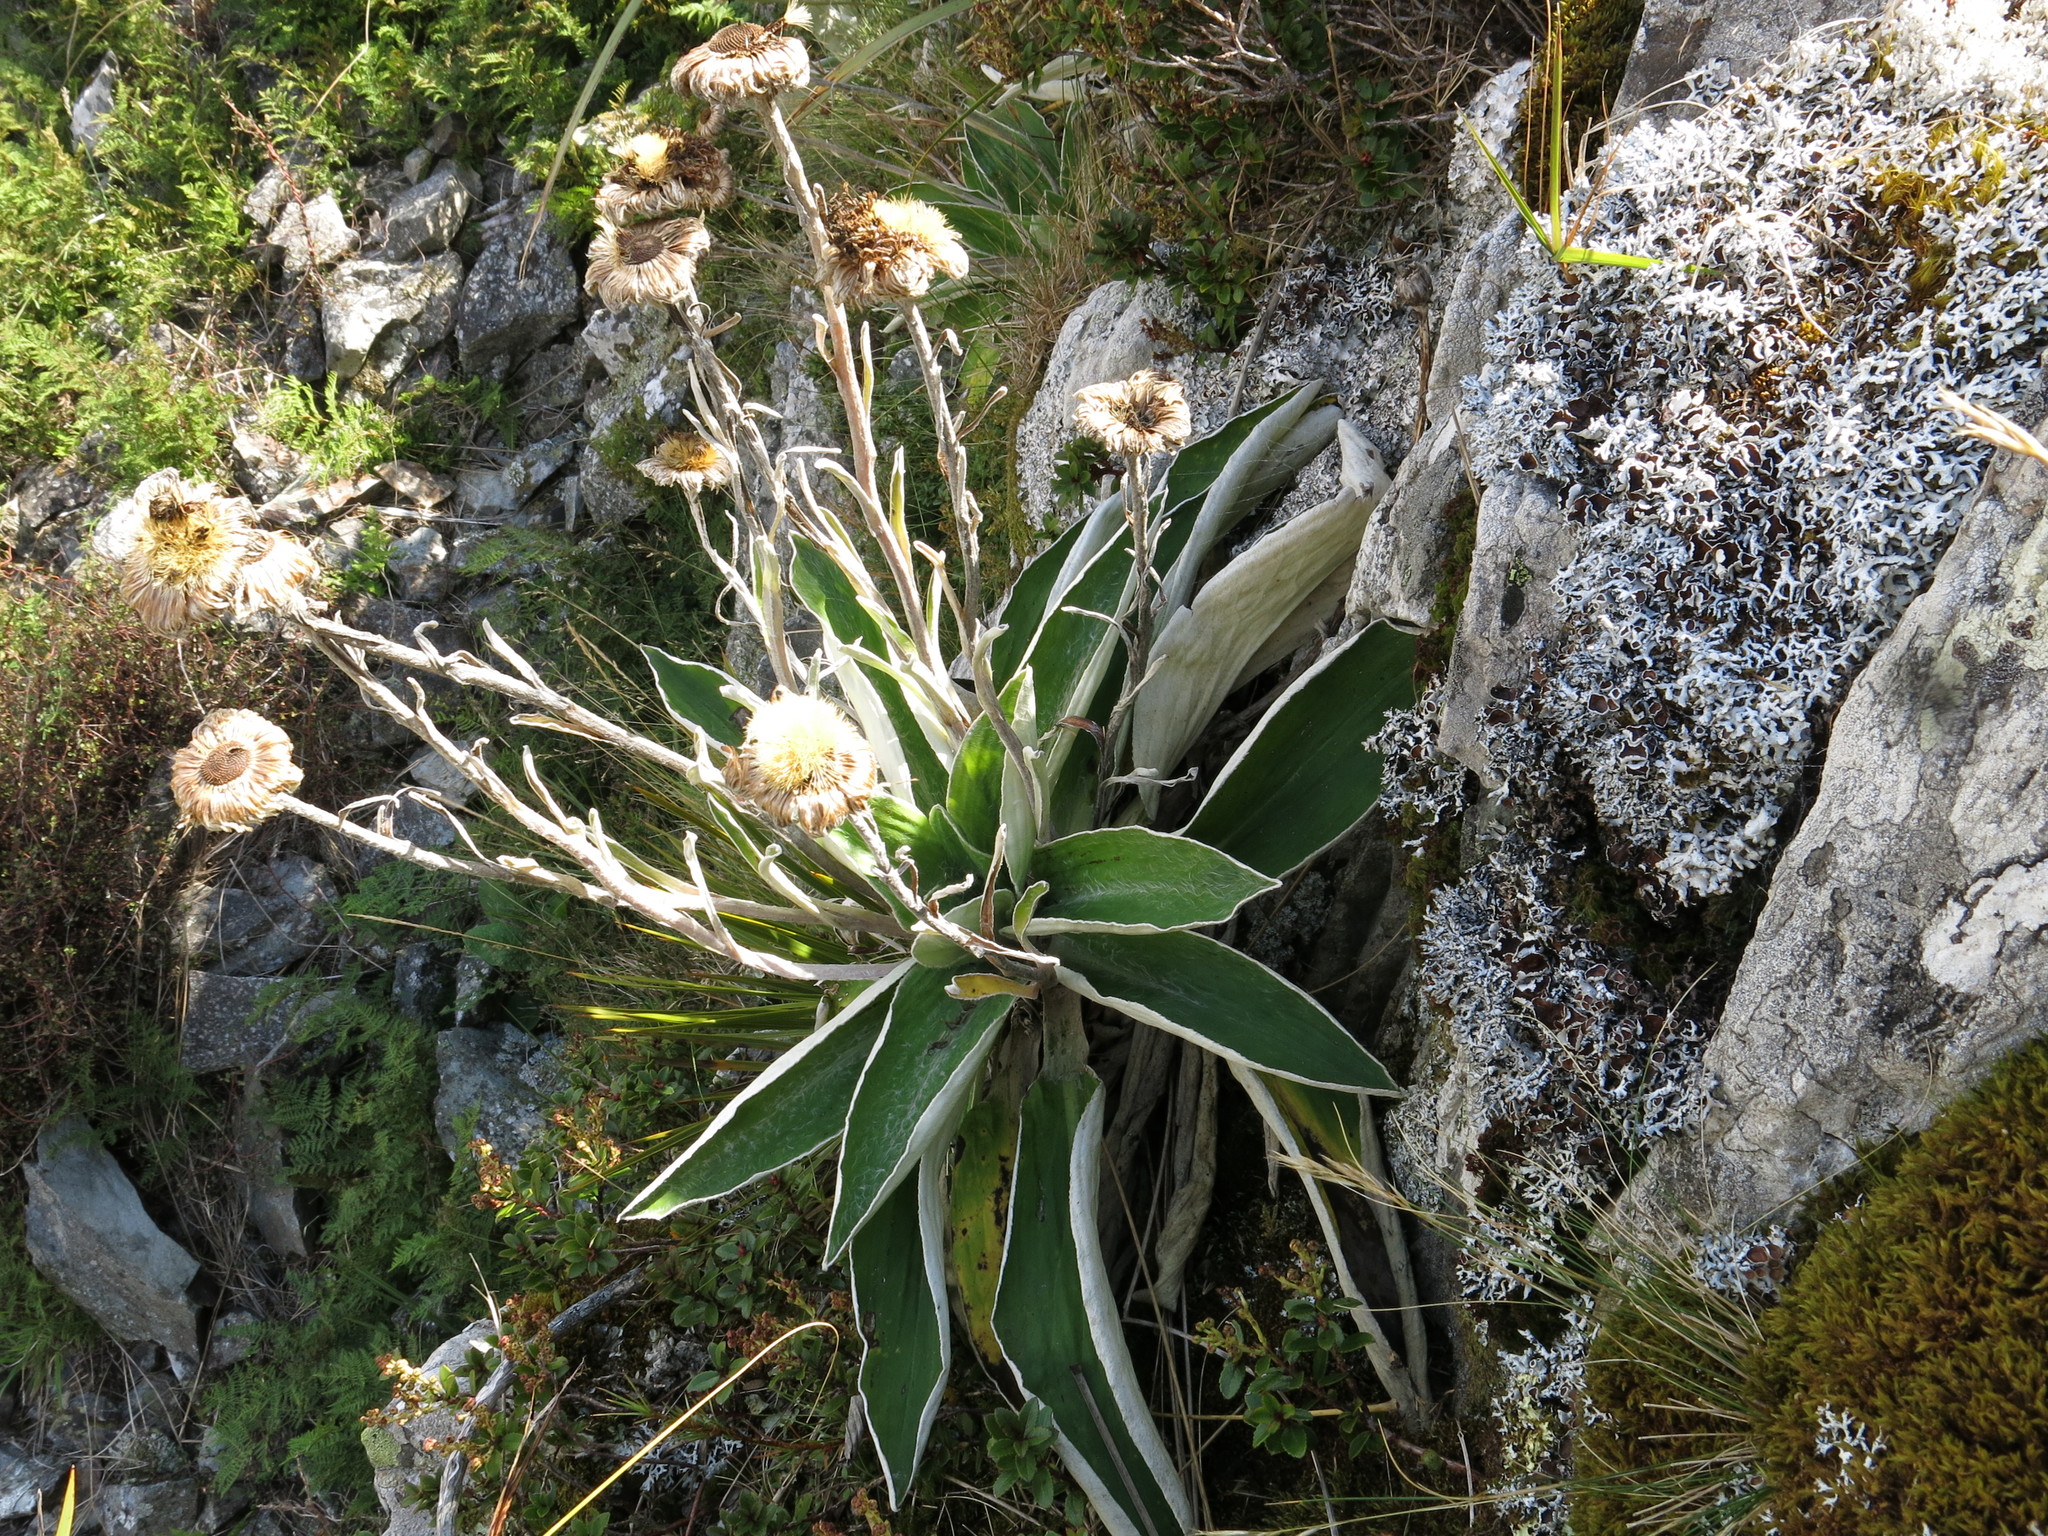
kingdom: Plantae
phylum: Tracheophyta
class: Magnoliopsida
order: Asterales
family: Asteraceae
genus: Celmisia
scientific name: Celmisia hookeri
